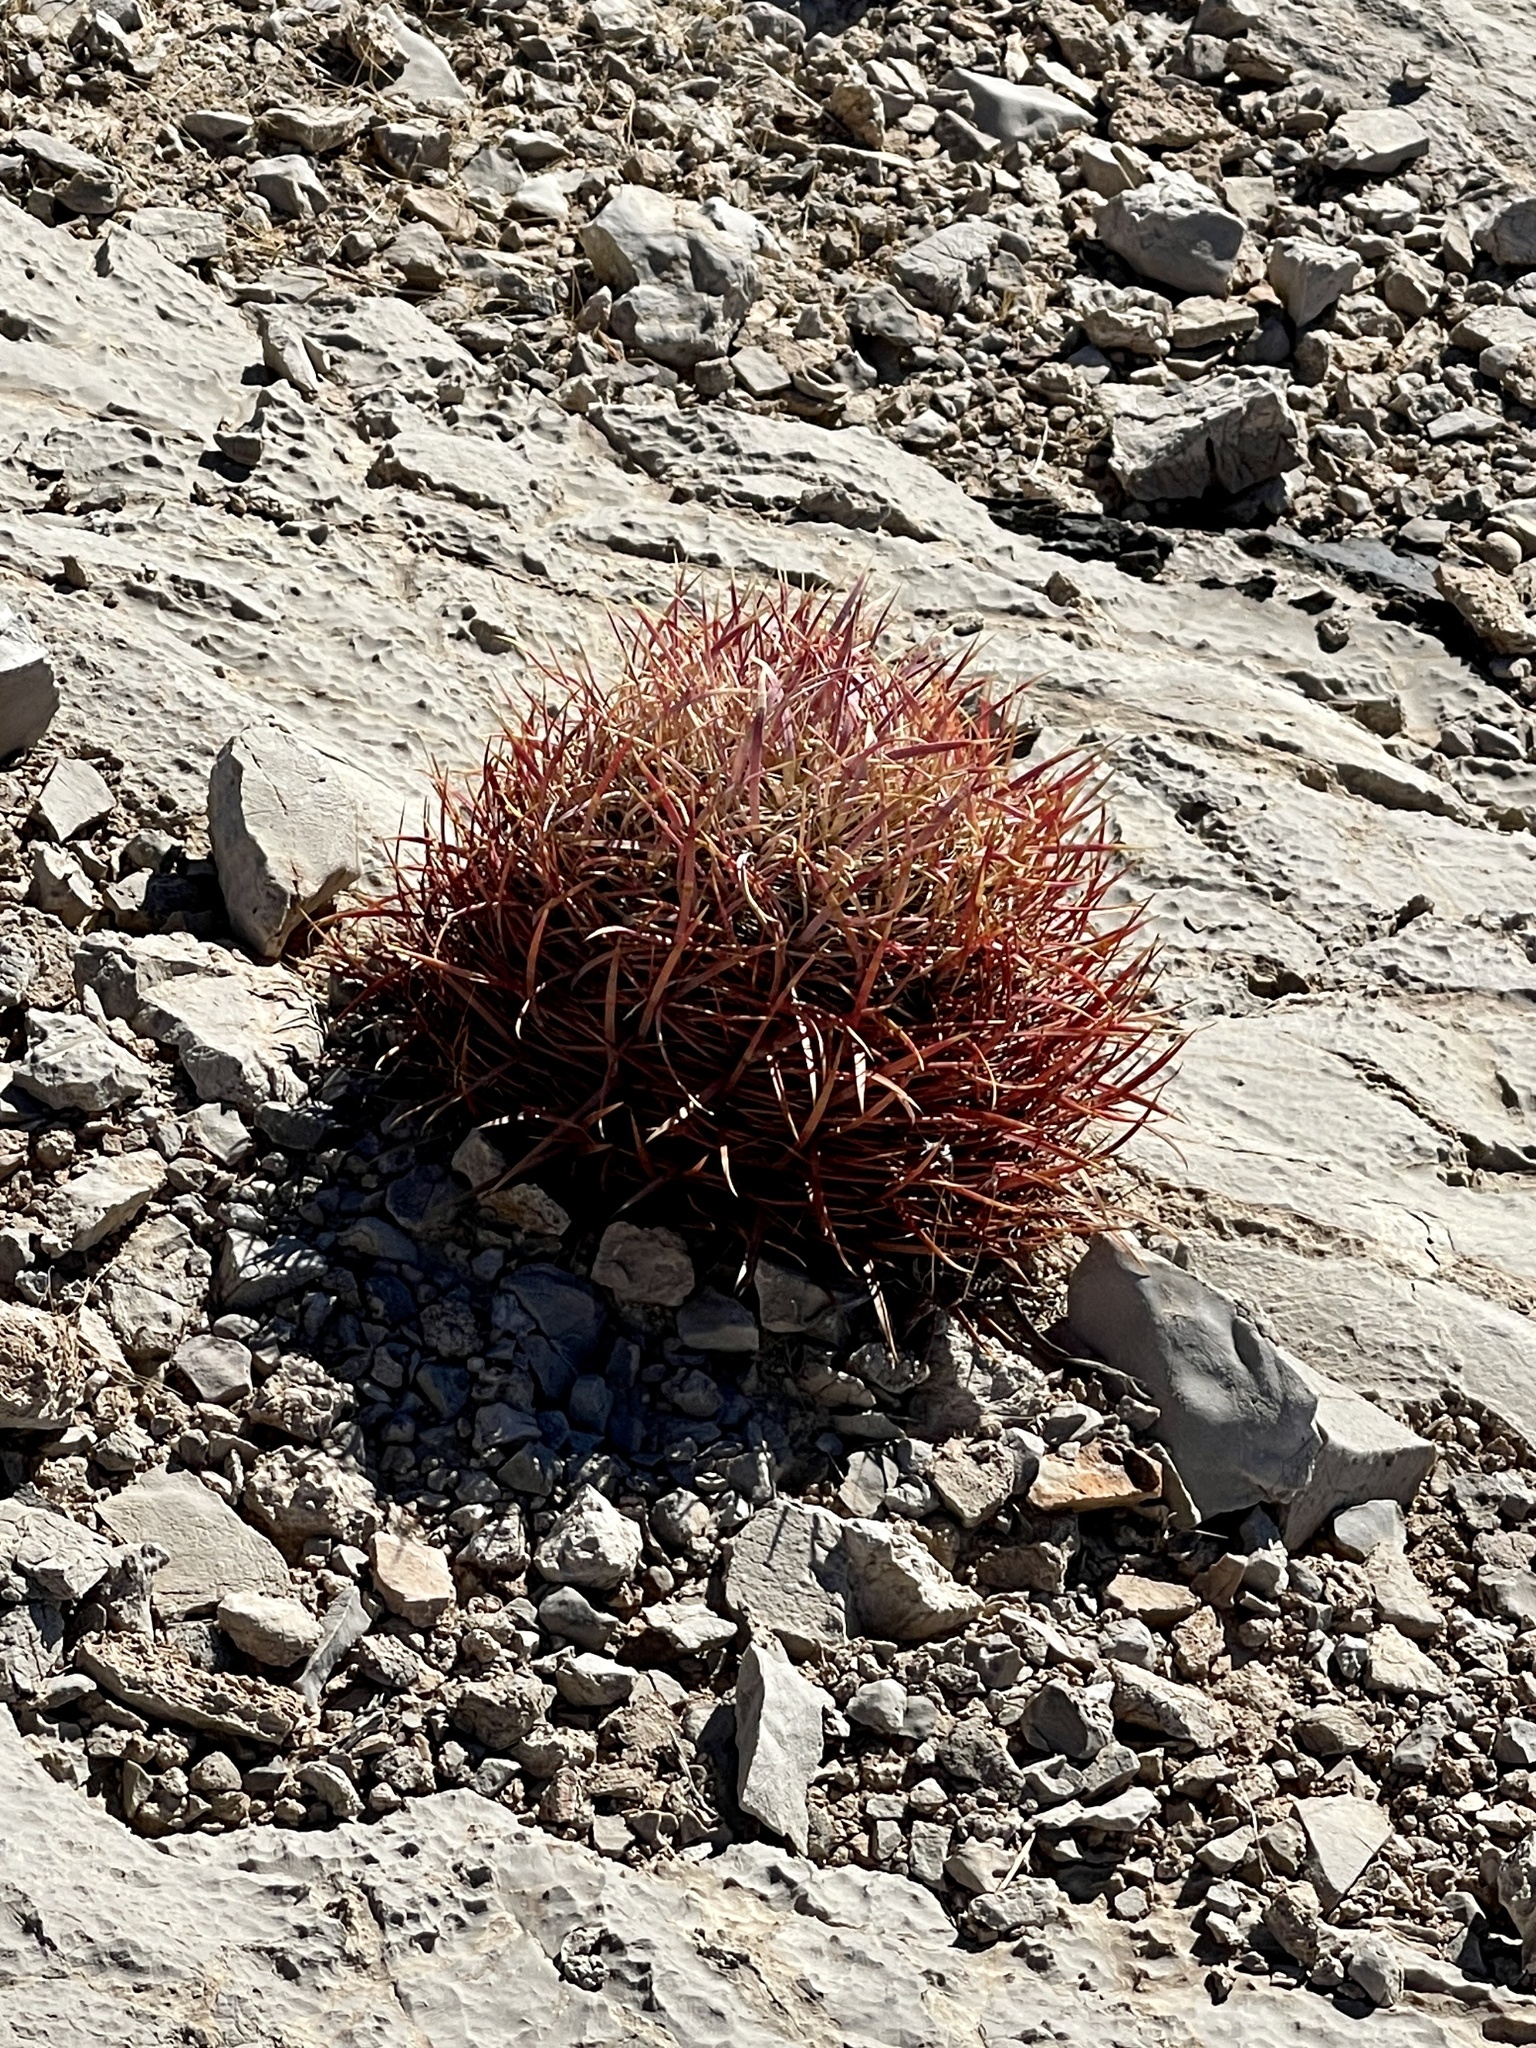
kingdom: Plantae
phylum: Tracheophyta
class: Magnoliopsida
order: Caryophyllales
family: Cactaceae
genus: Ferocactus
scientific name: Ferocactus cylindraceus
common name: California barrel cactus
